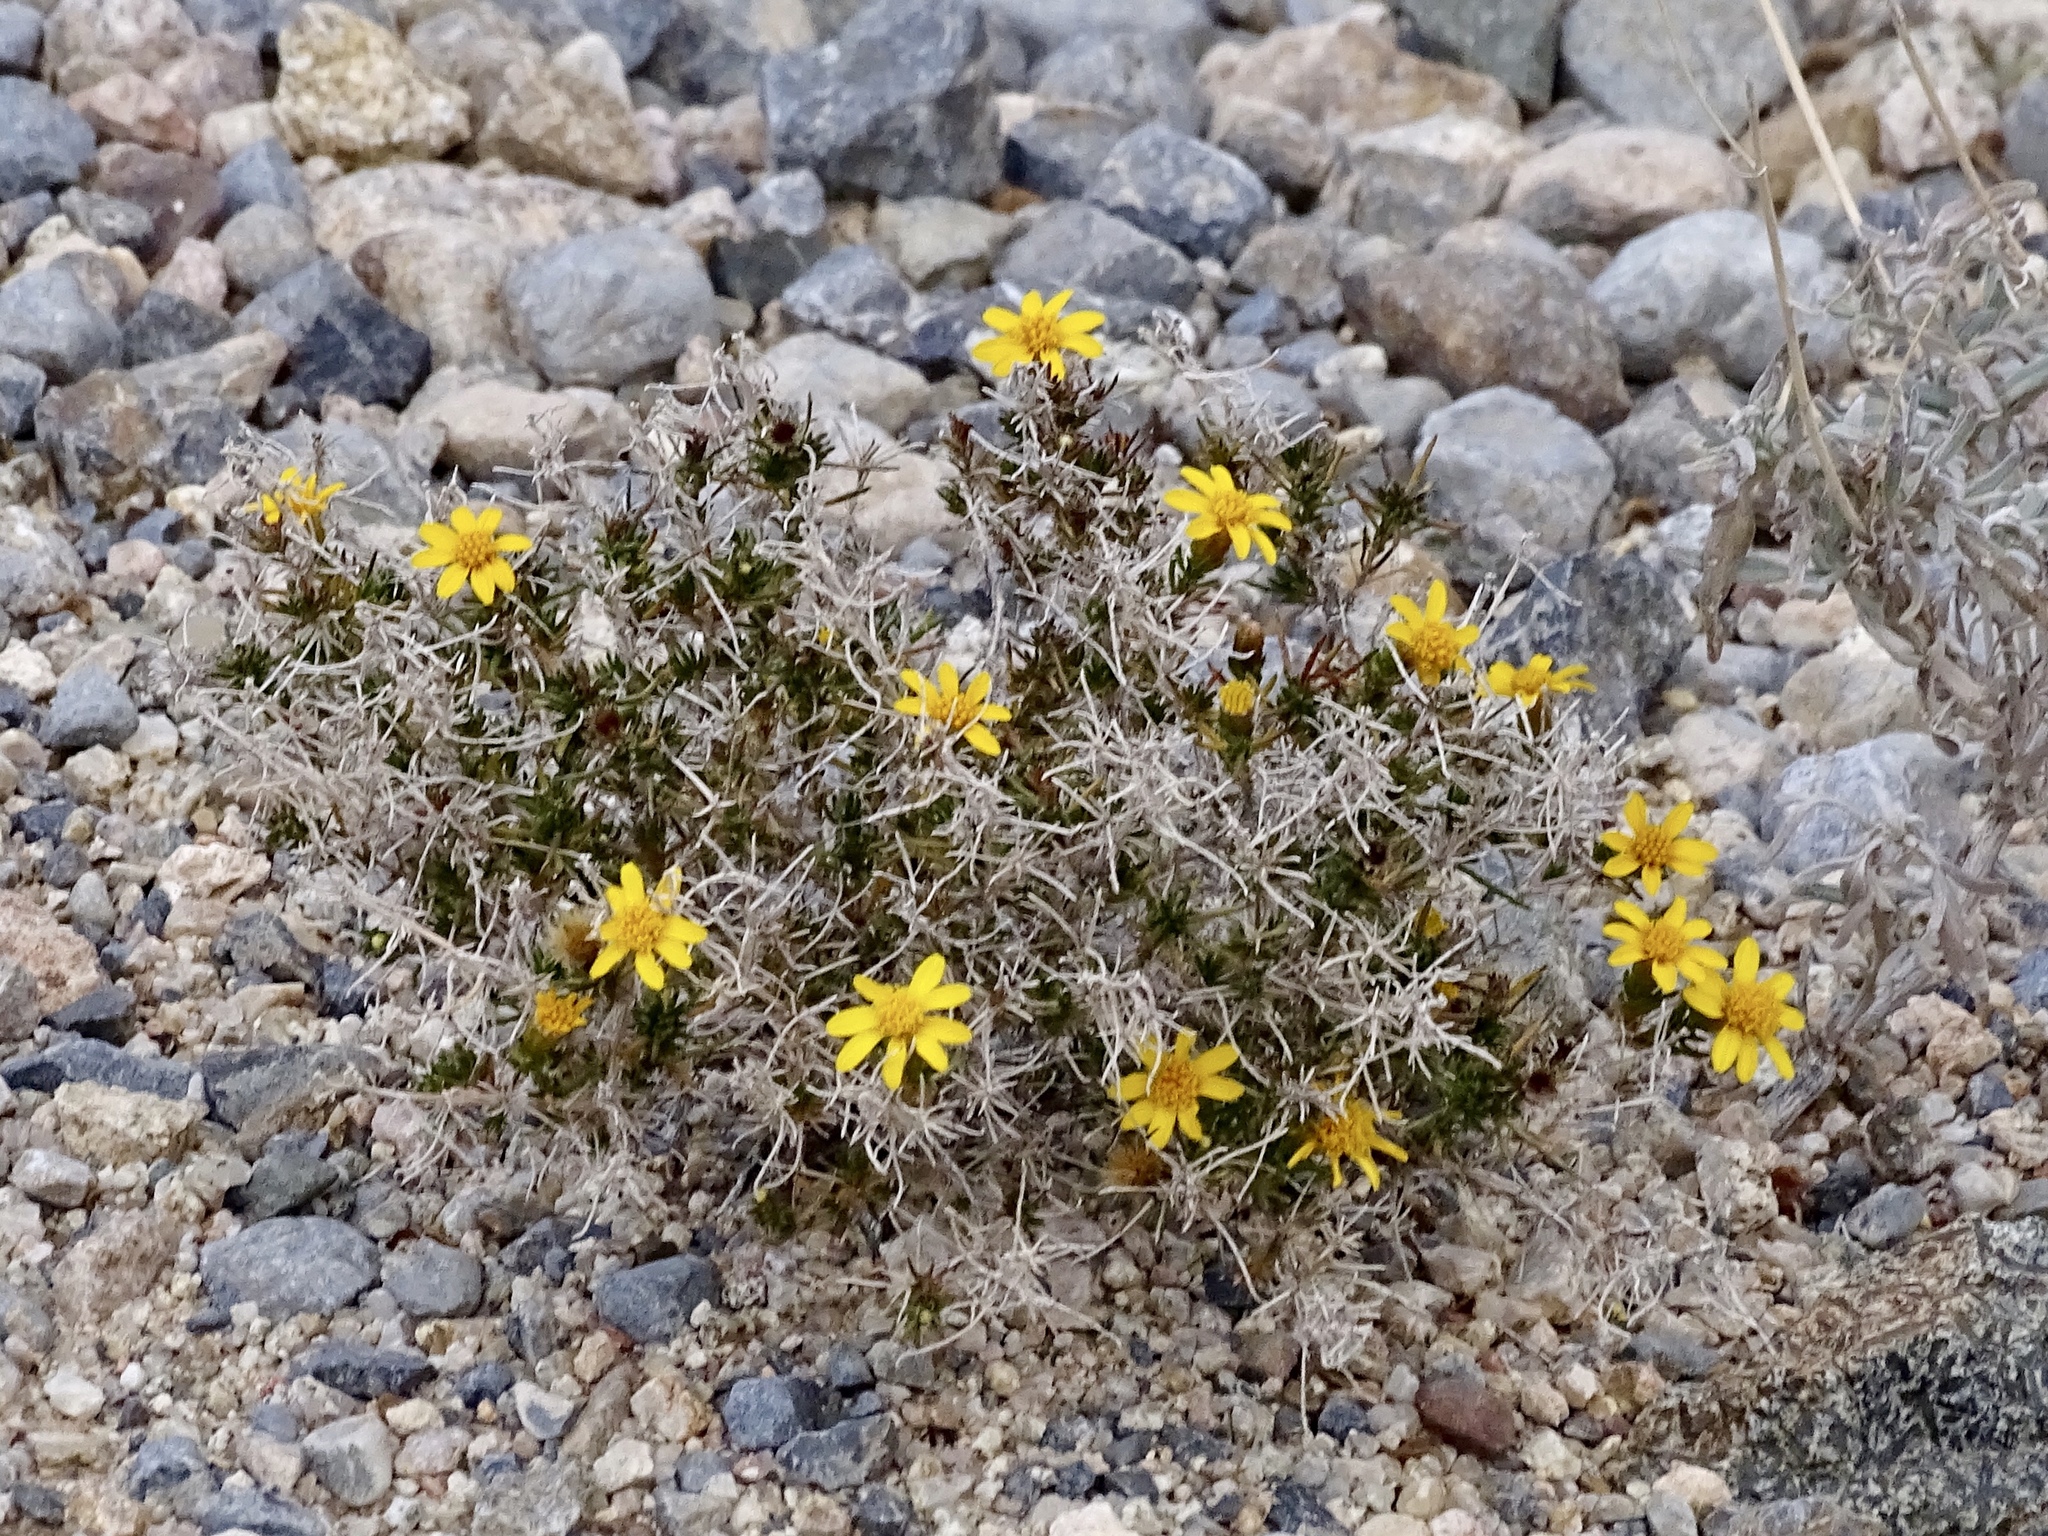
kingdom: Plantae
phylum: Tracheophyta
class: Magnoliopsida
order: Asterales
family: Asteraceae
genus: Thymophylla
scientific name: Thymophylla acerosa
